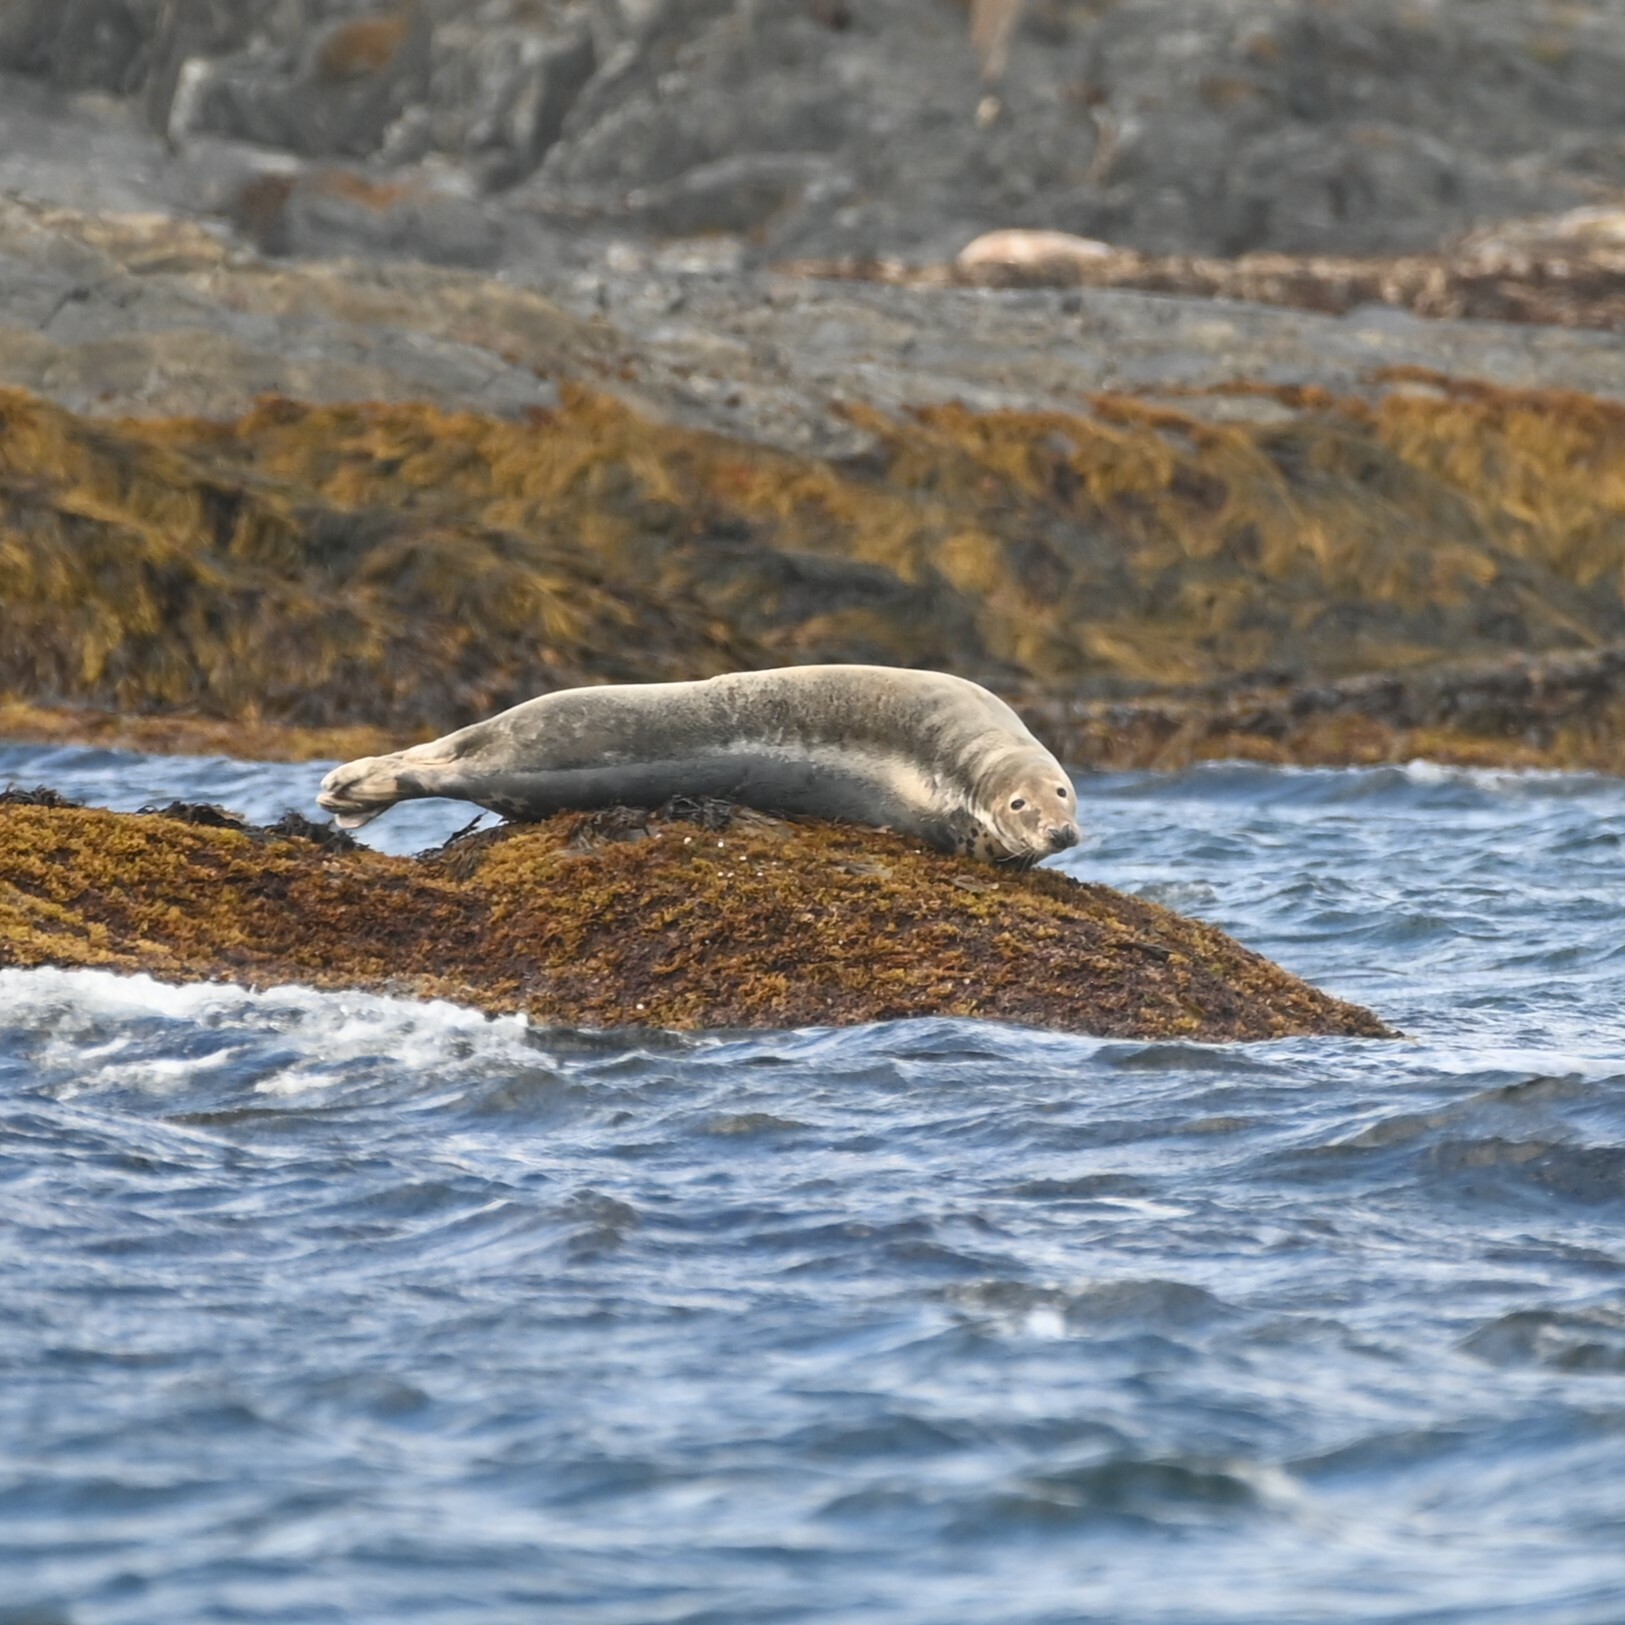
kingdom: Animalia
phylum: Chordata
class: Mammalia
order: Carnivora
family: Phocidae
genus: Halichoerus
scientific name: Halichoerus grypus
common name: Grey seal
